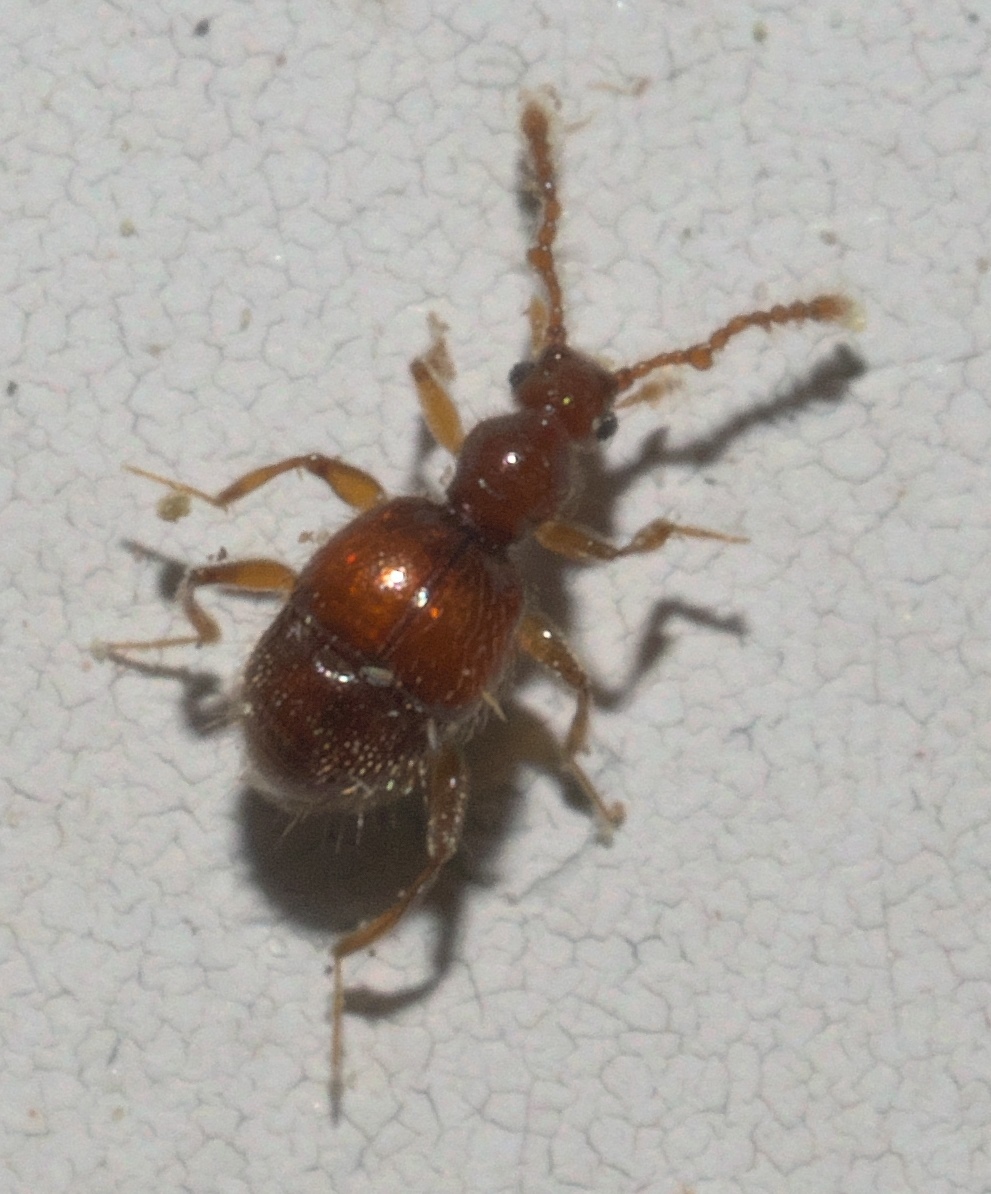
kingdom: Animalia
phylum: Arthropoda
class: Insecta
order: Coleoptera
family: Staphylinidae
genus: Arthmius
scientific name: Arthmius bulbifer
